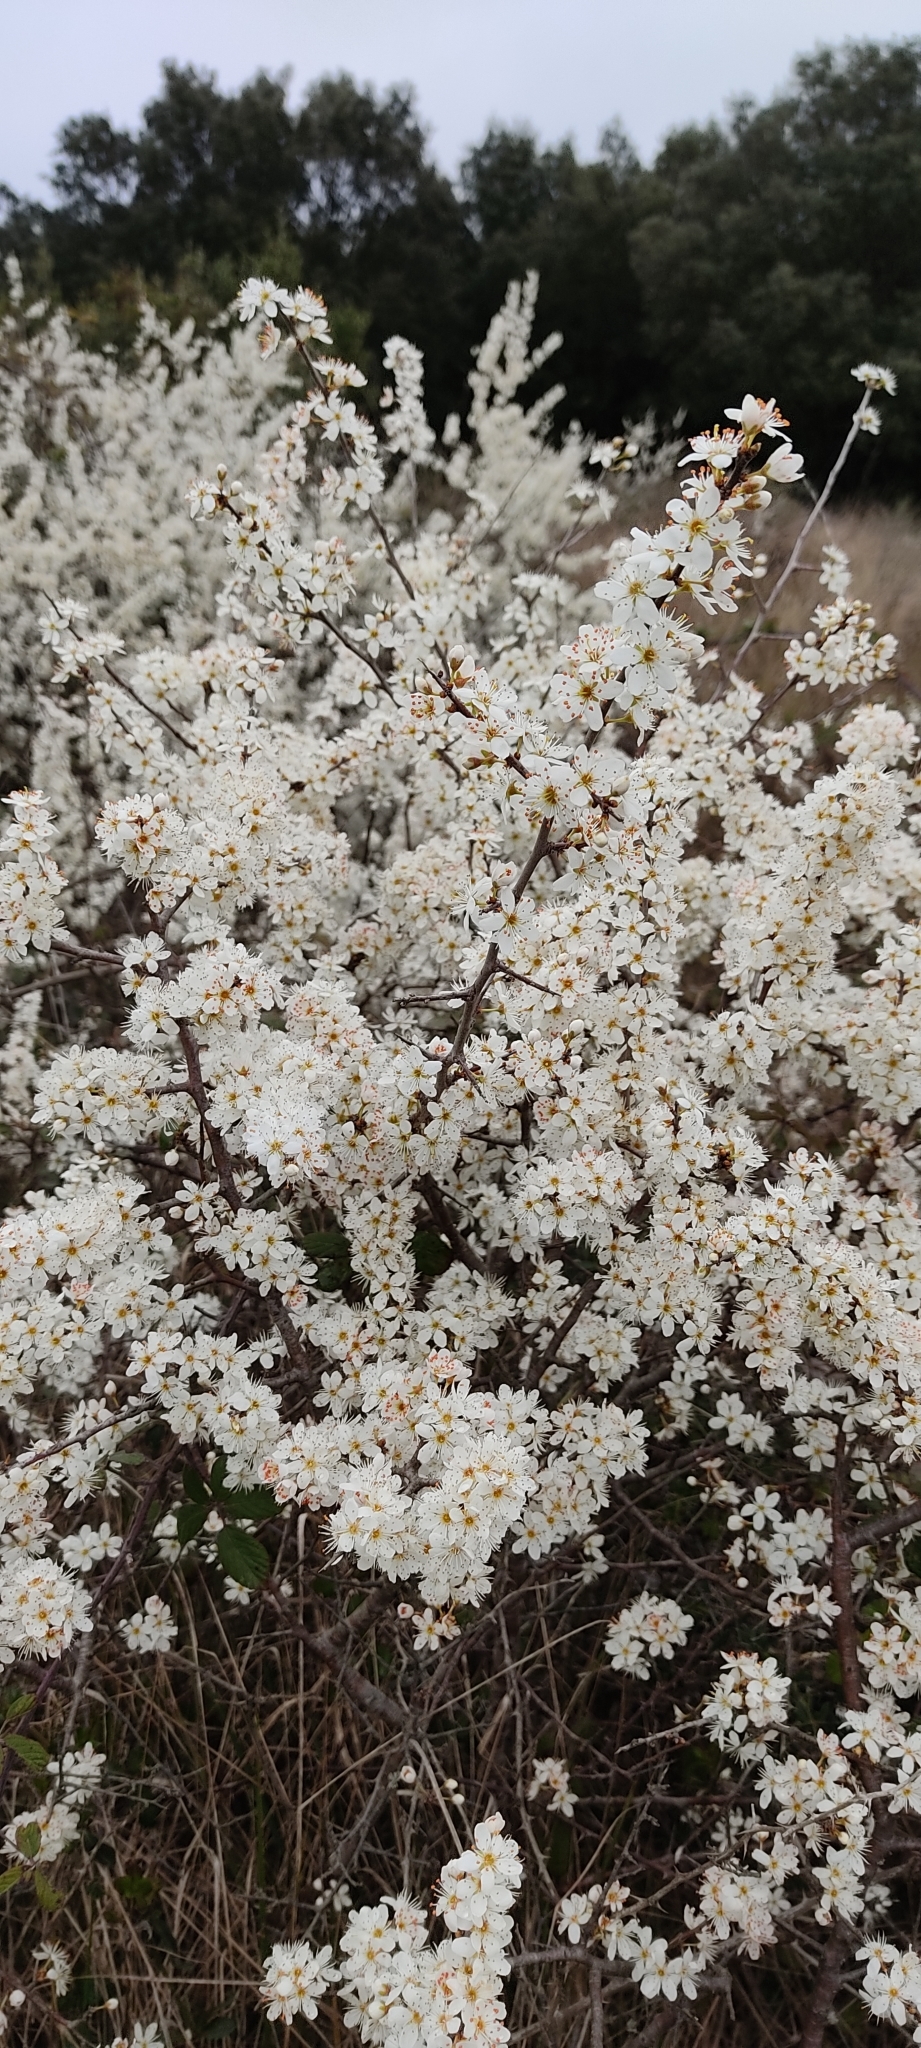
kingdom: Plantae
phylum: Tracheophyta
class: Magnoliopsida
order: Rosales
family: Rosaceae
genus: Prunus
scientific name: Prunus spinosa
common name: Blackthorn
